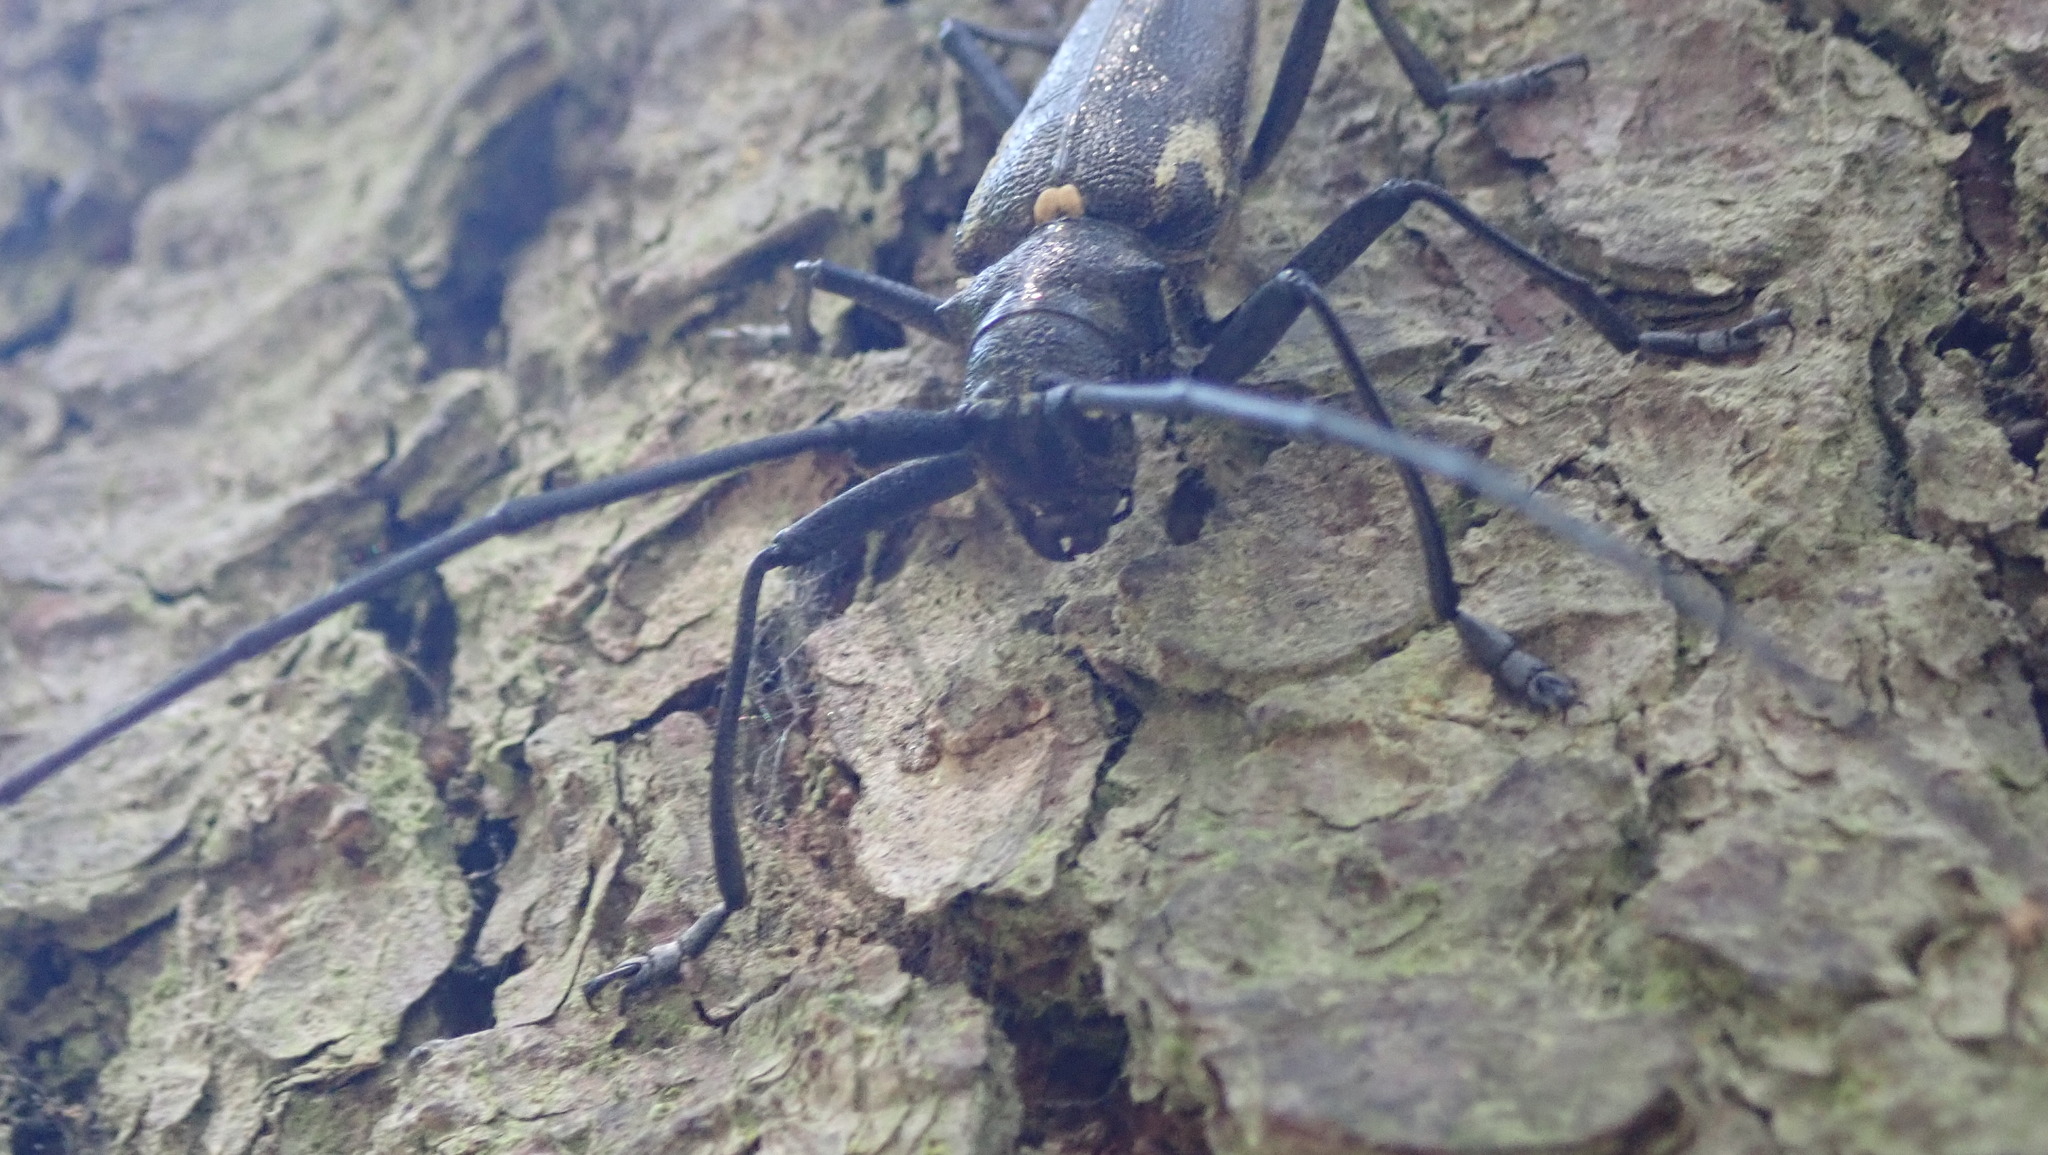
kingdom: Animalia
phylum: Arthropoda
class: Insecta
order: Coleoptera
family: Cerambycidae
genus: Monochamus
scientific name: Monochamus sartor
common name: Pine sawyer
